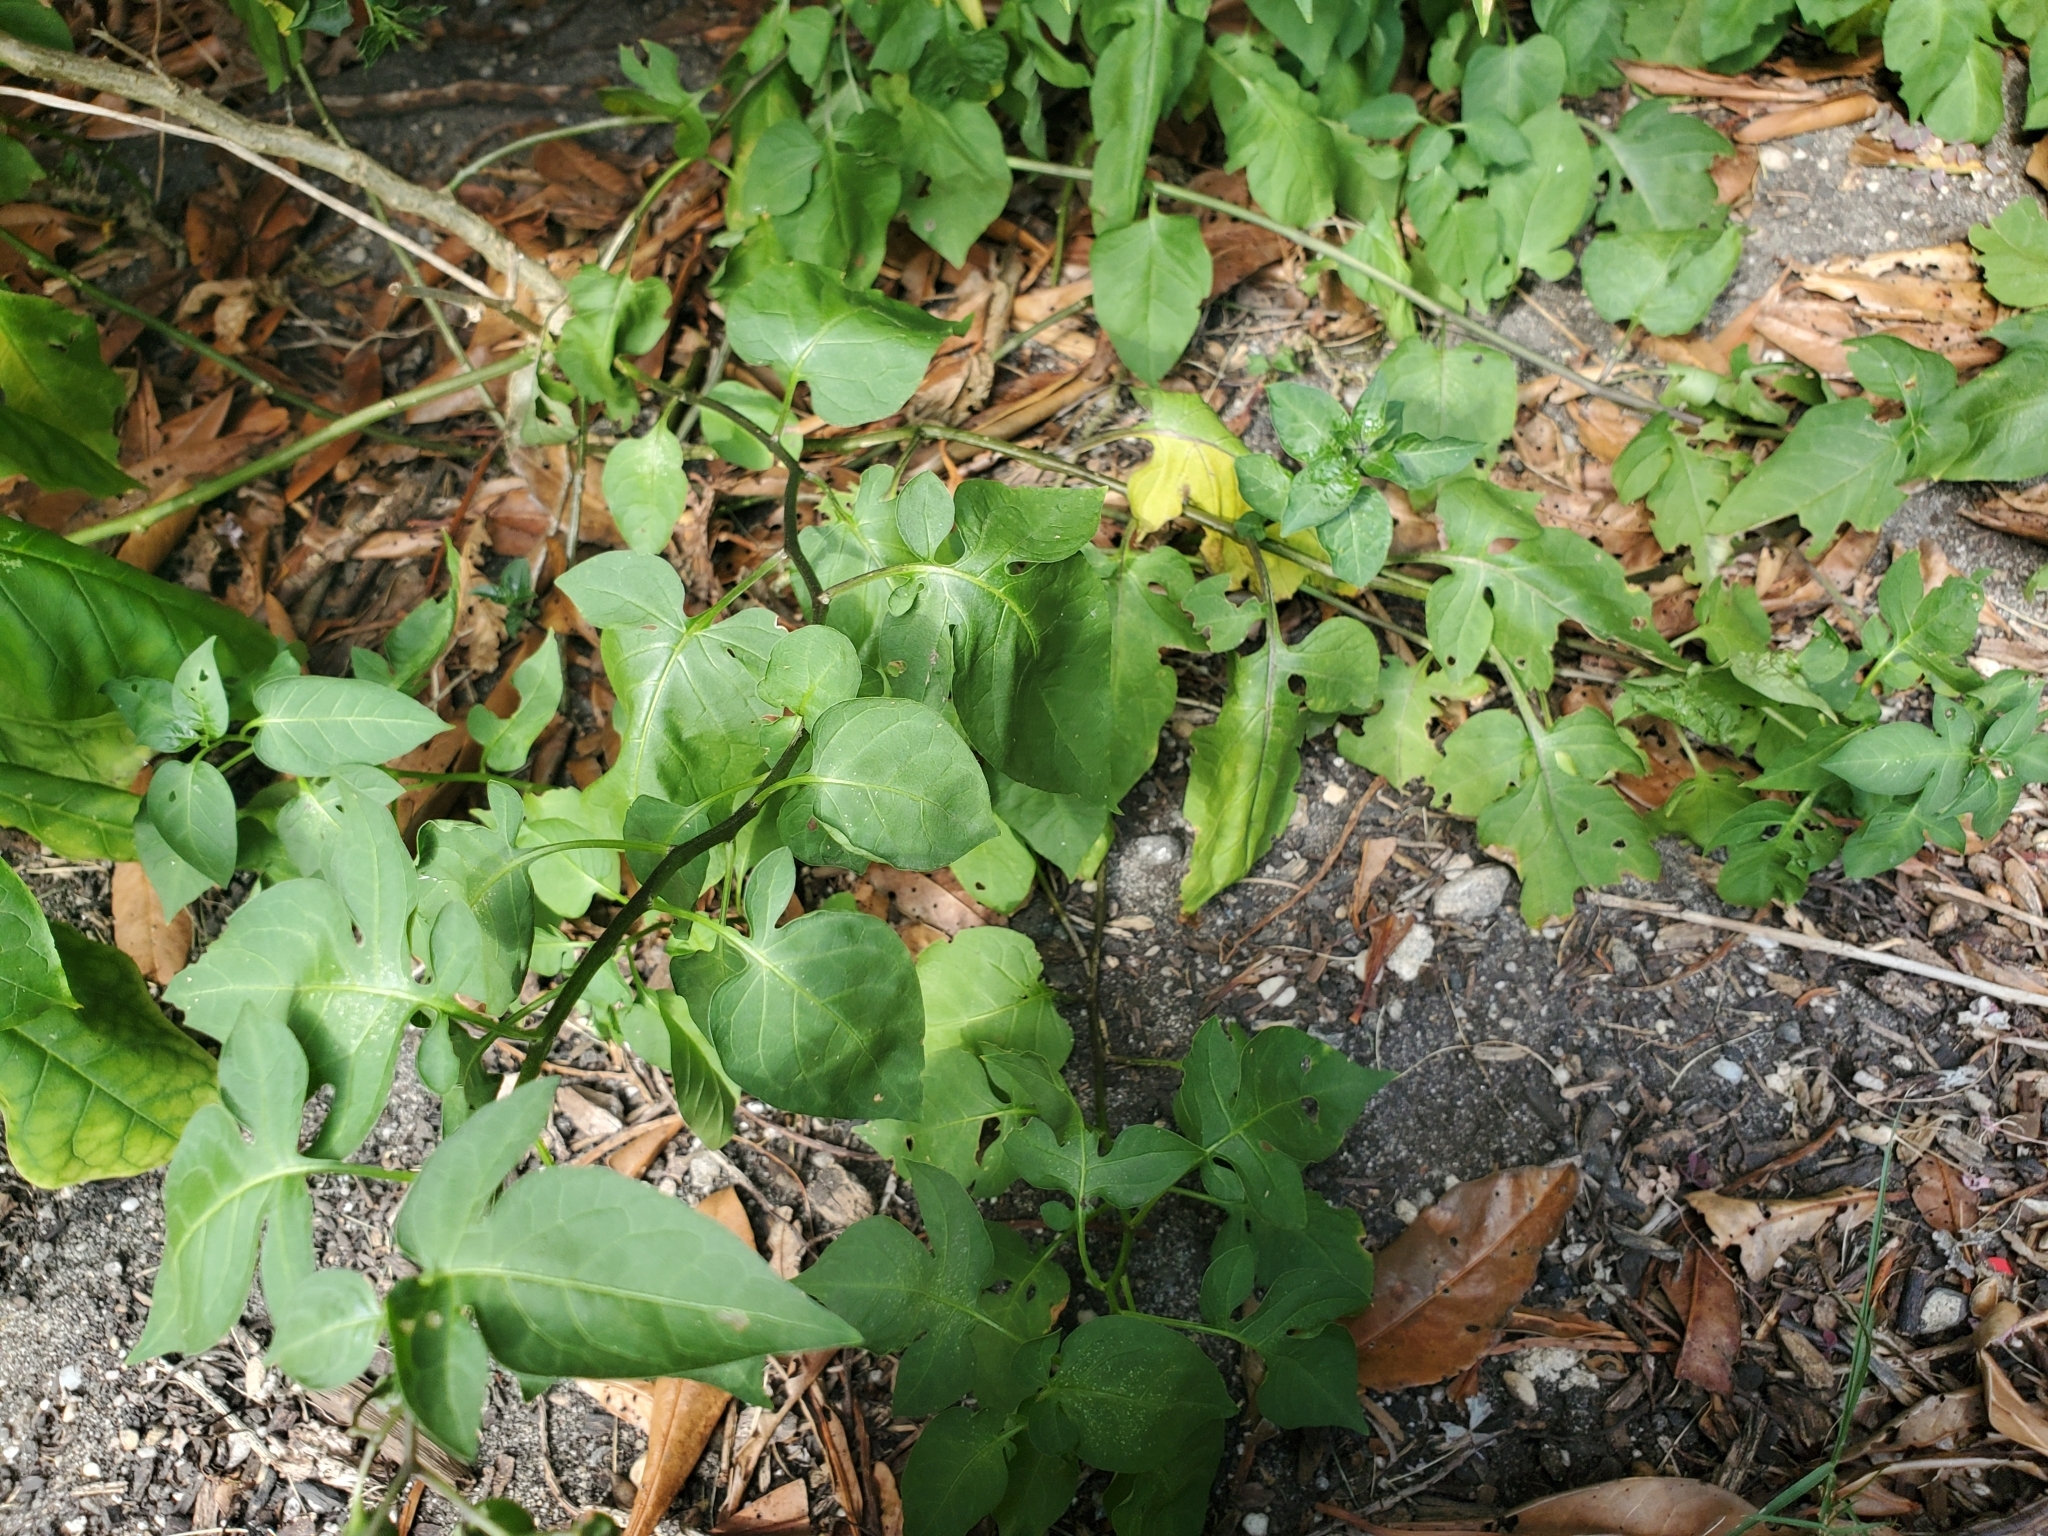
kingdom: Plantae
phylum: Tracheophyta
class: Magnoliopsida
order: Solanales
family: Solanaceae
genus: Solanum
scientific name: Solanum dulcamara
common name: Climbing nightshade
